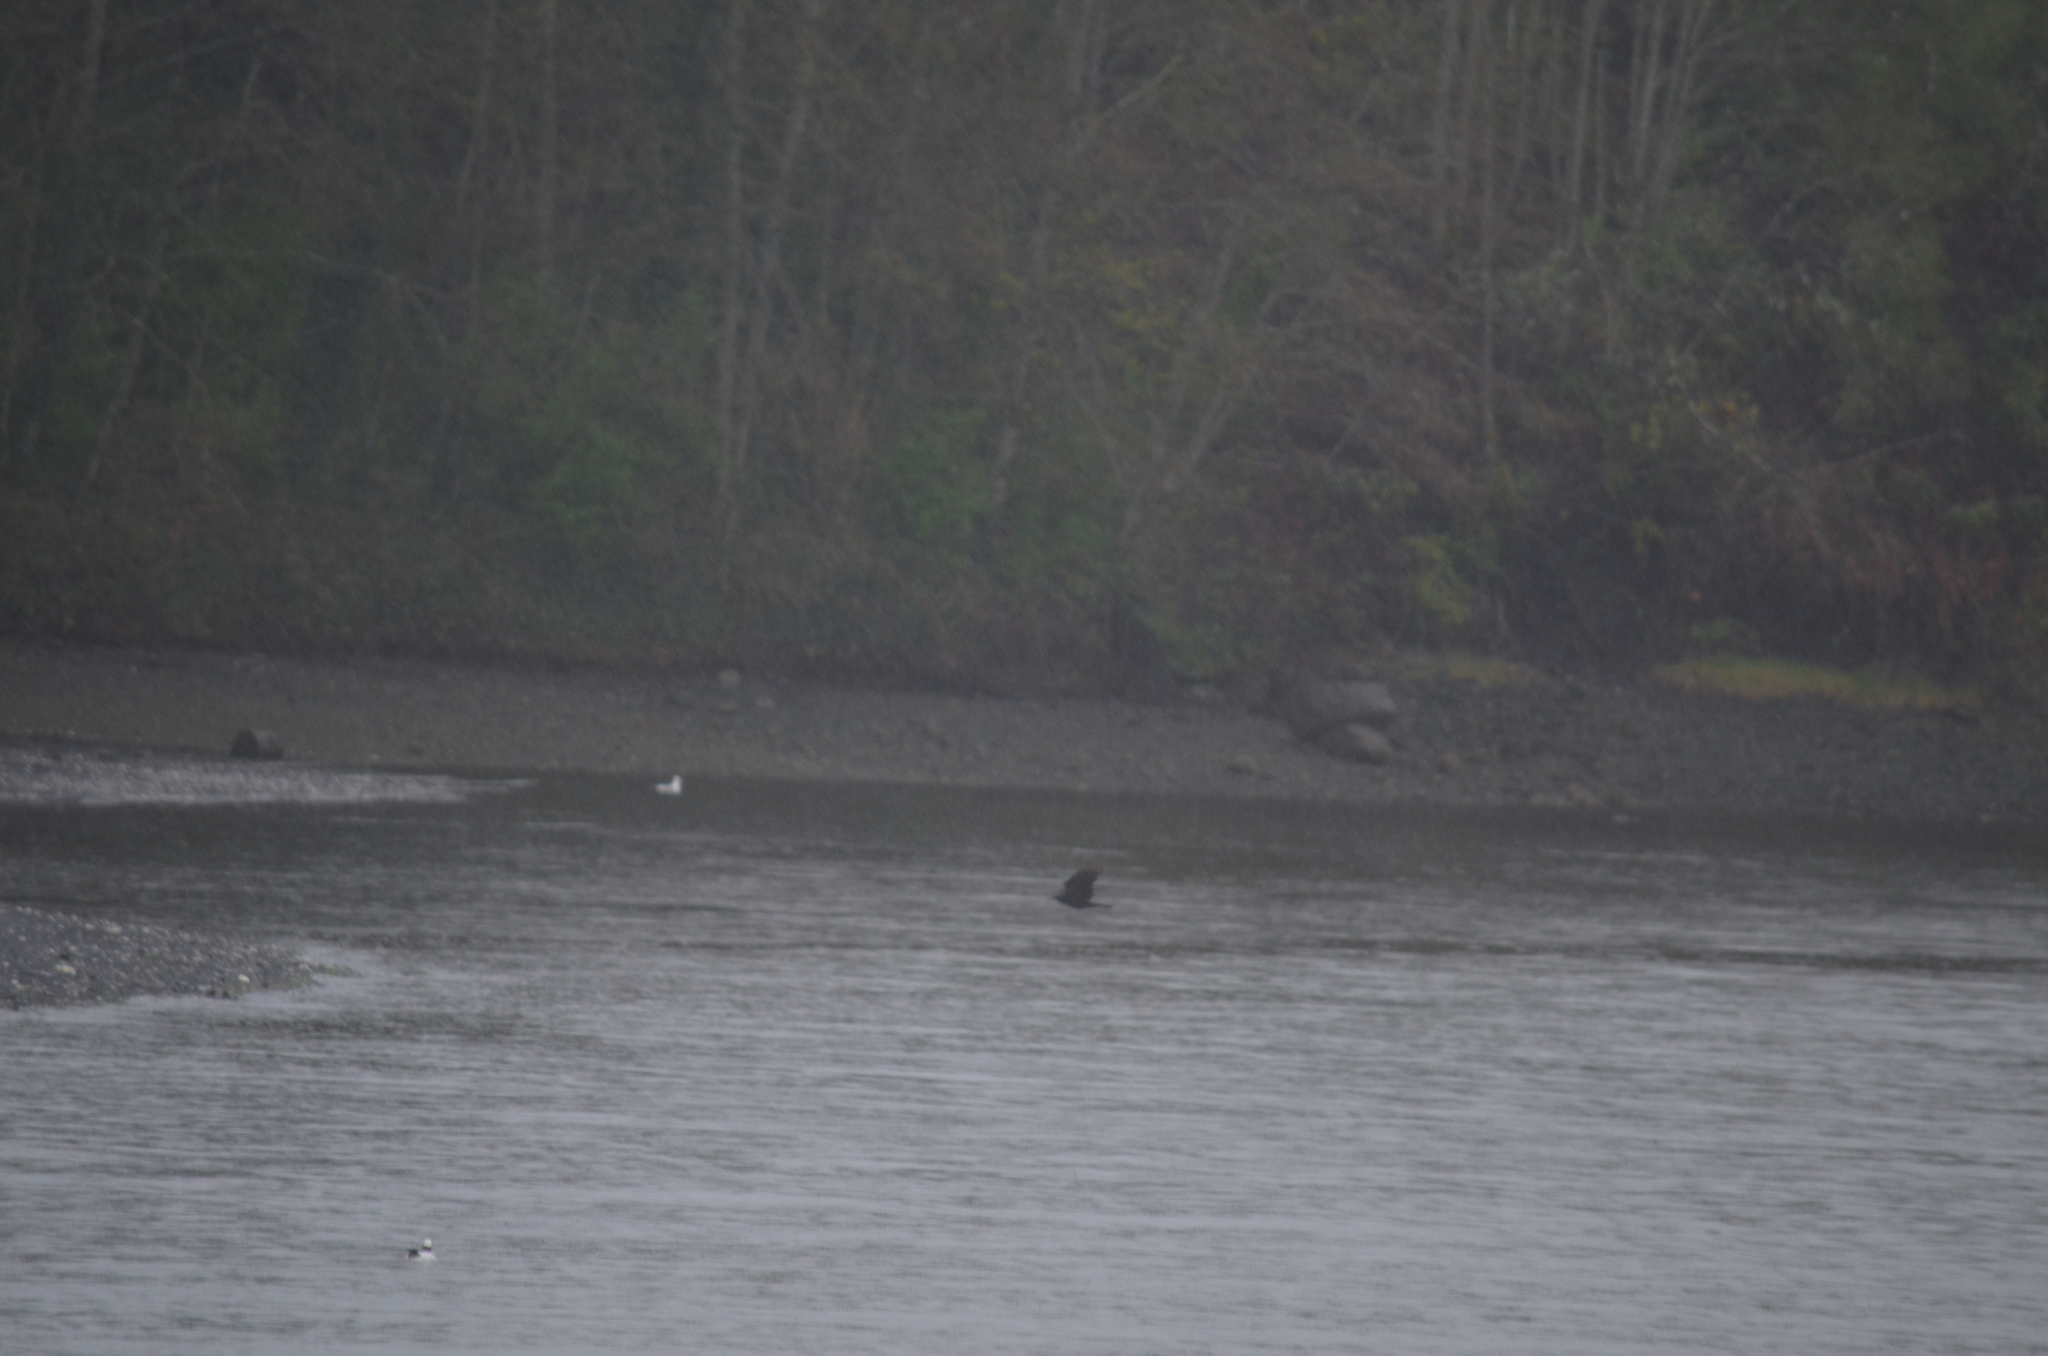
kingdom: Animalia
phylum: Chordata
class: Aves
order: Passeriformes
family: Corvidae
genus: Corvus
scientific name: Corvus brachyrhynchos
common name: American crow
